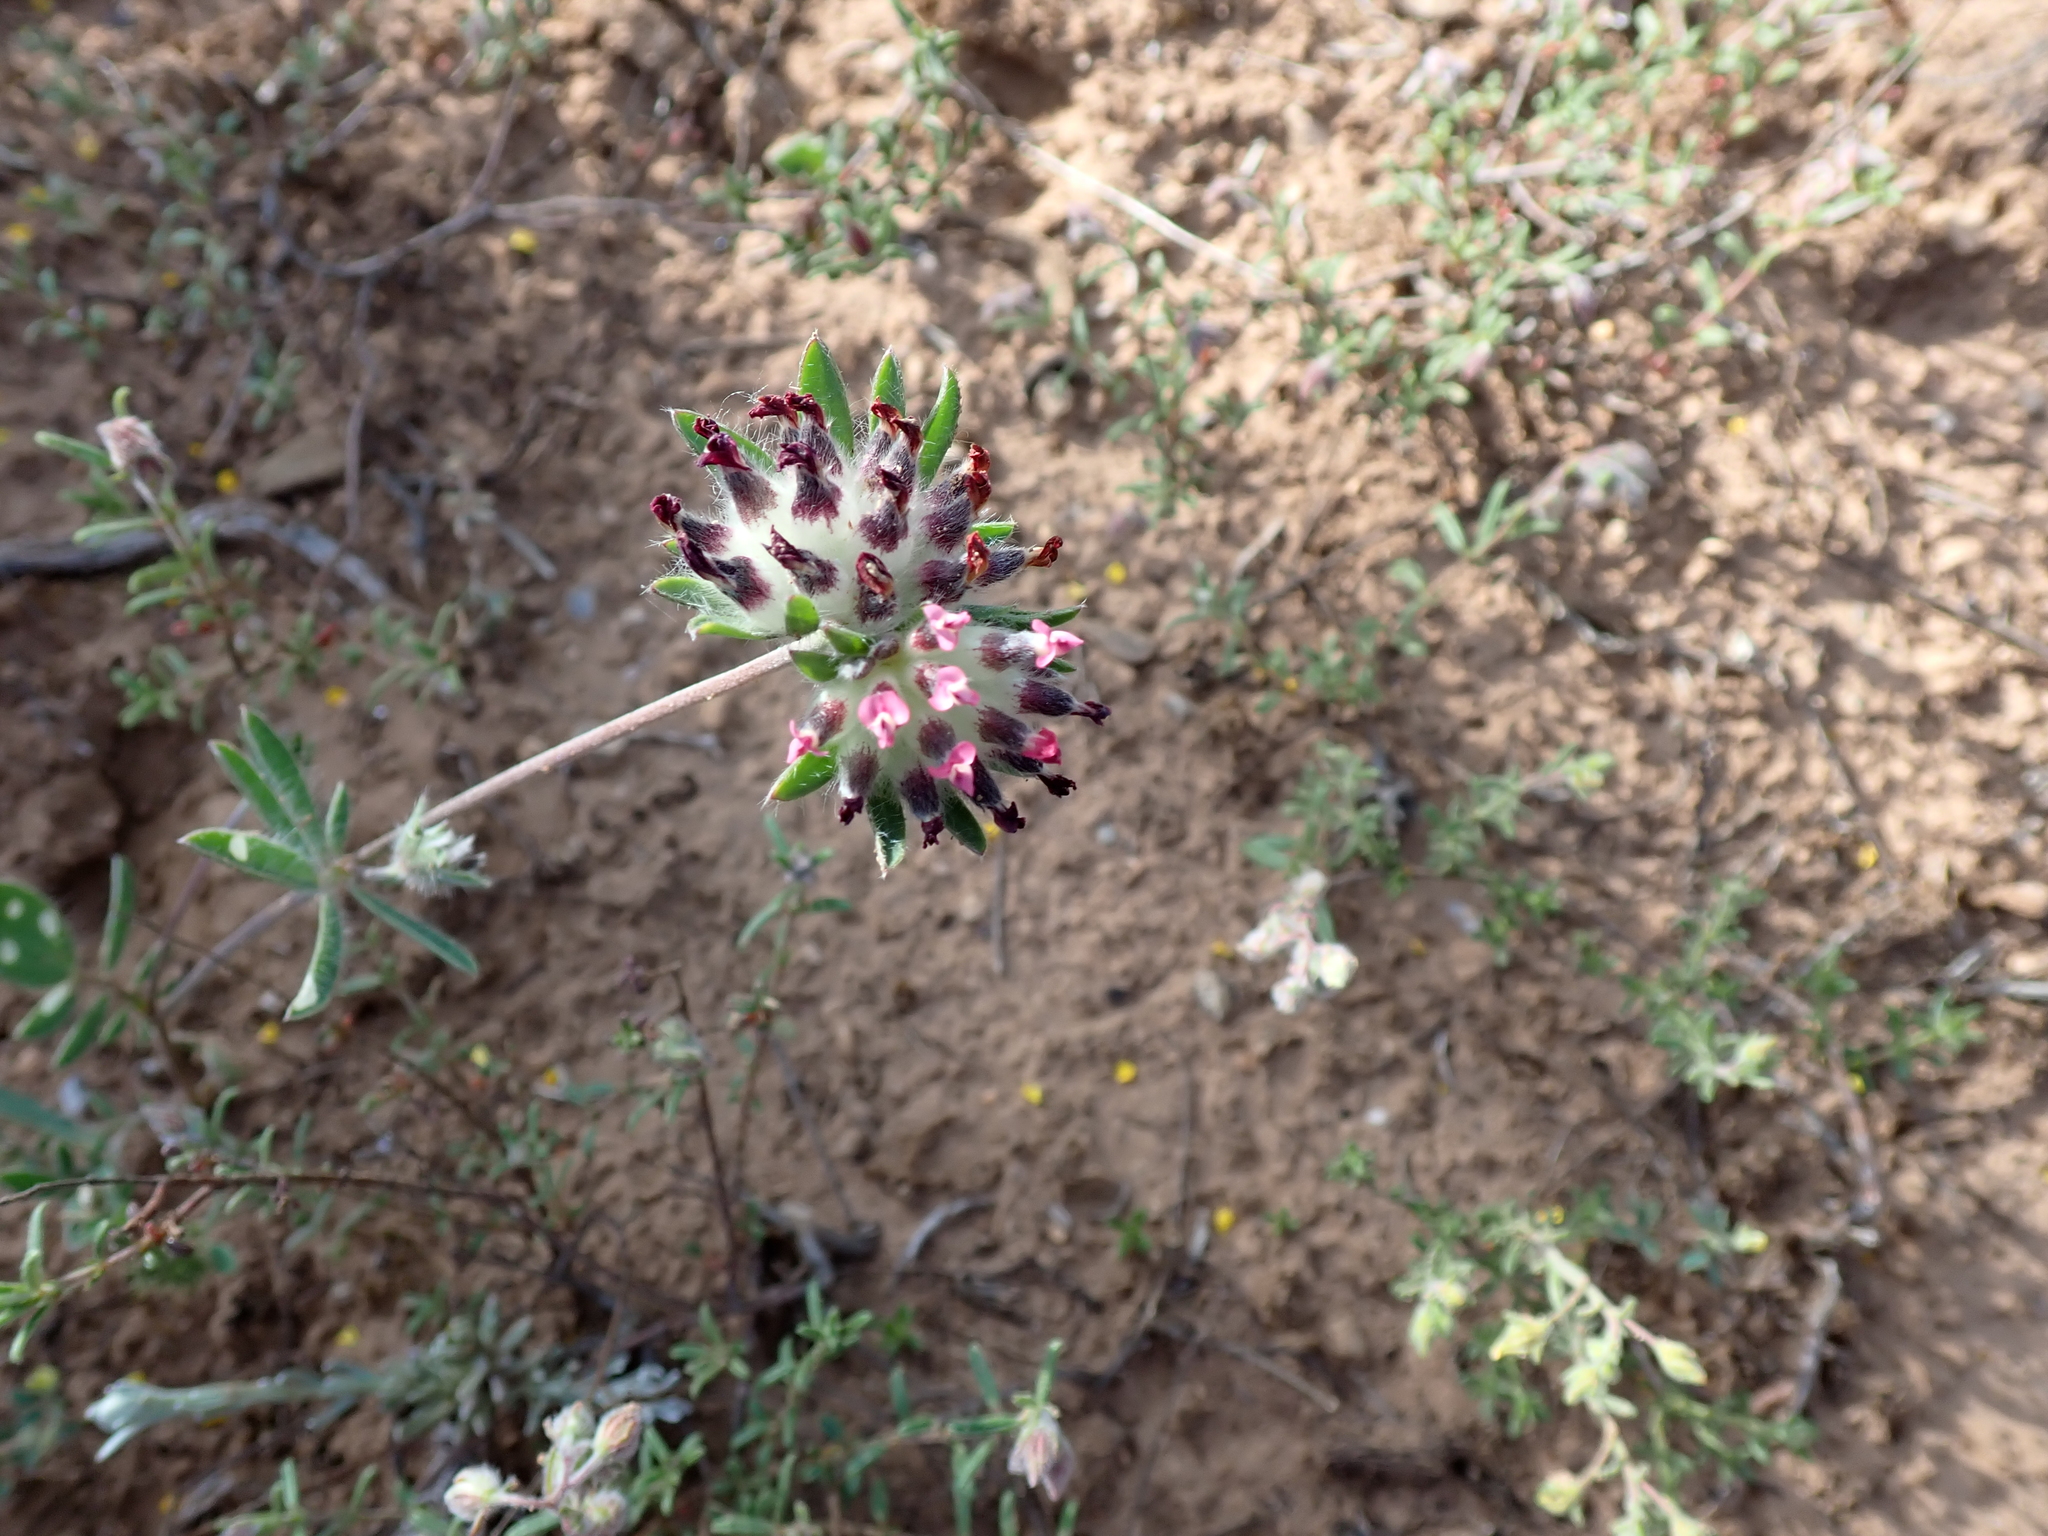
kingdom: Plantae
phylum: Tracheophyta
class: Magnoliopsida
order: Fabales
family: Fabaceae
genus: Anthyllis
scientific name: Anthyllis vulneraria
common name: Kidney vetch
